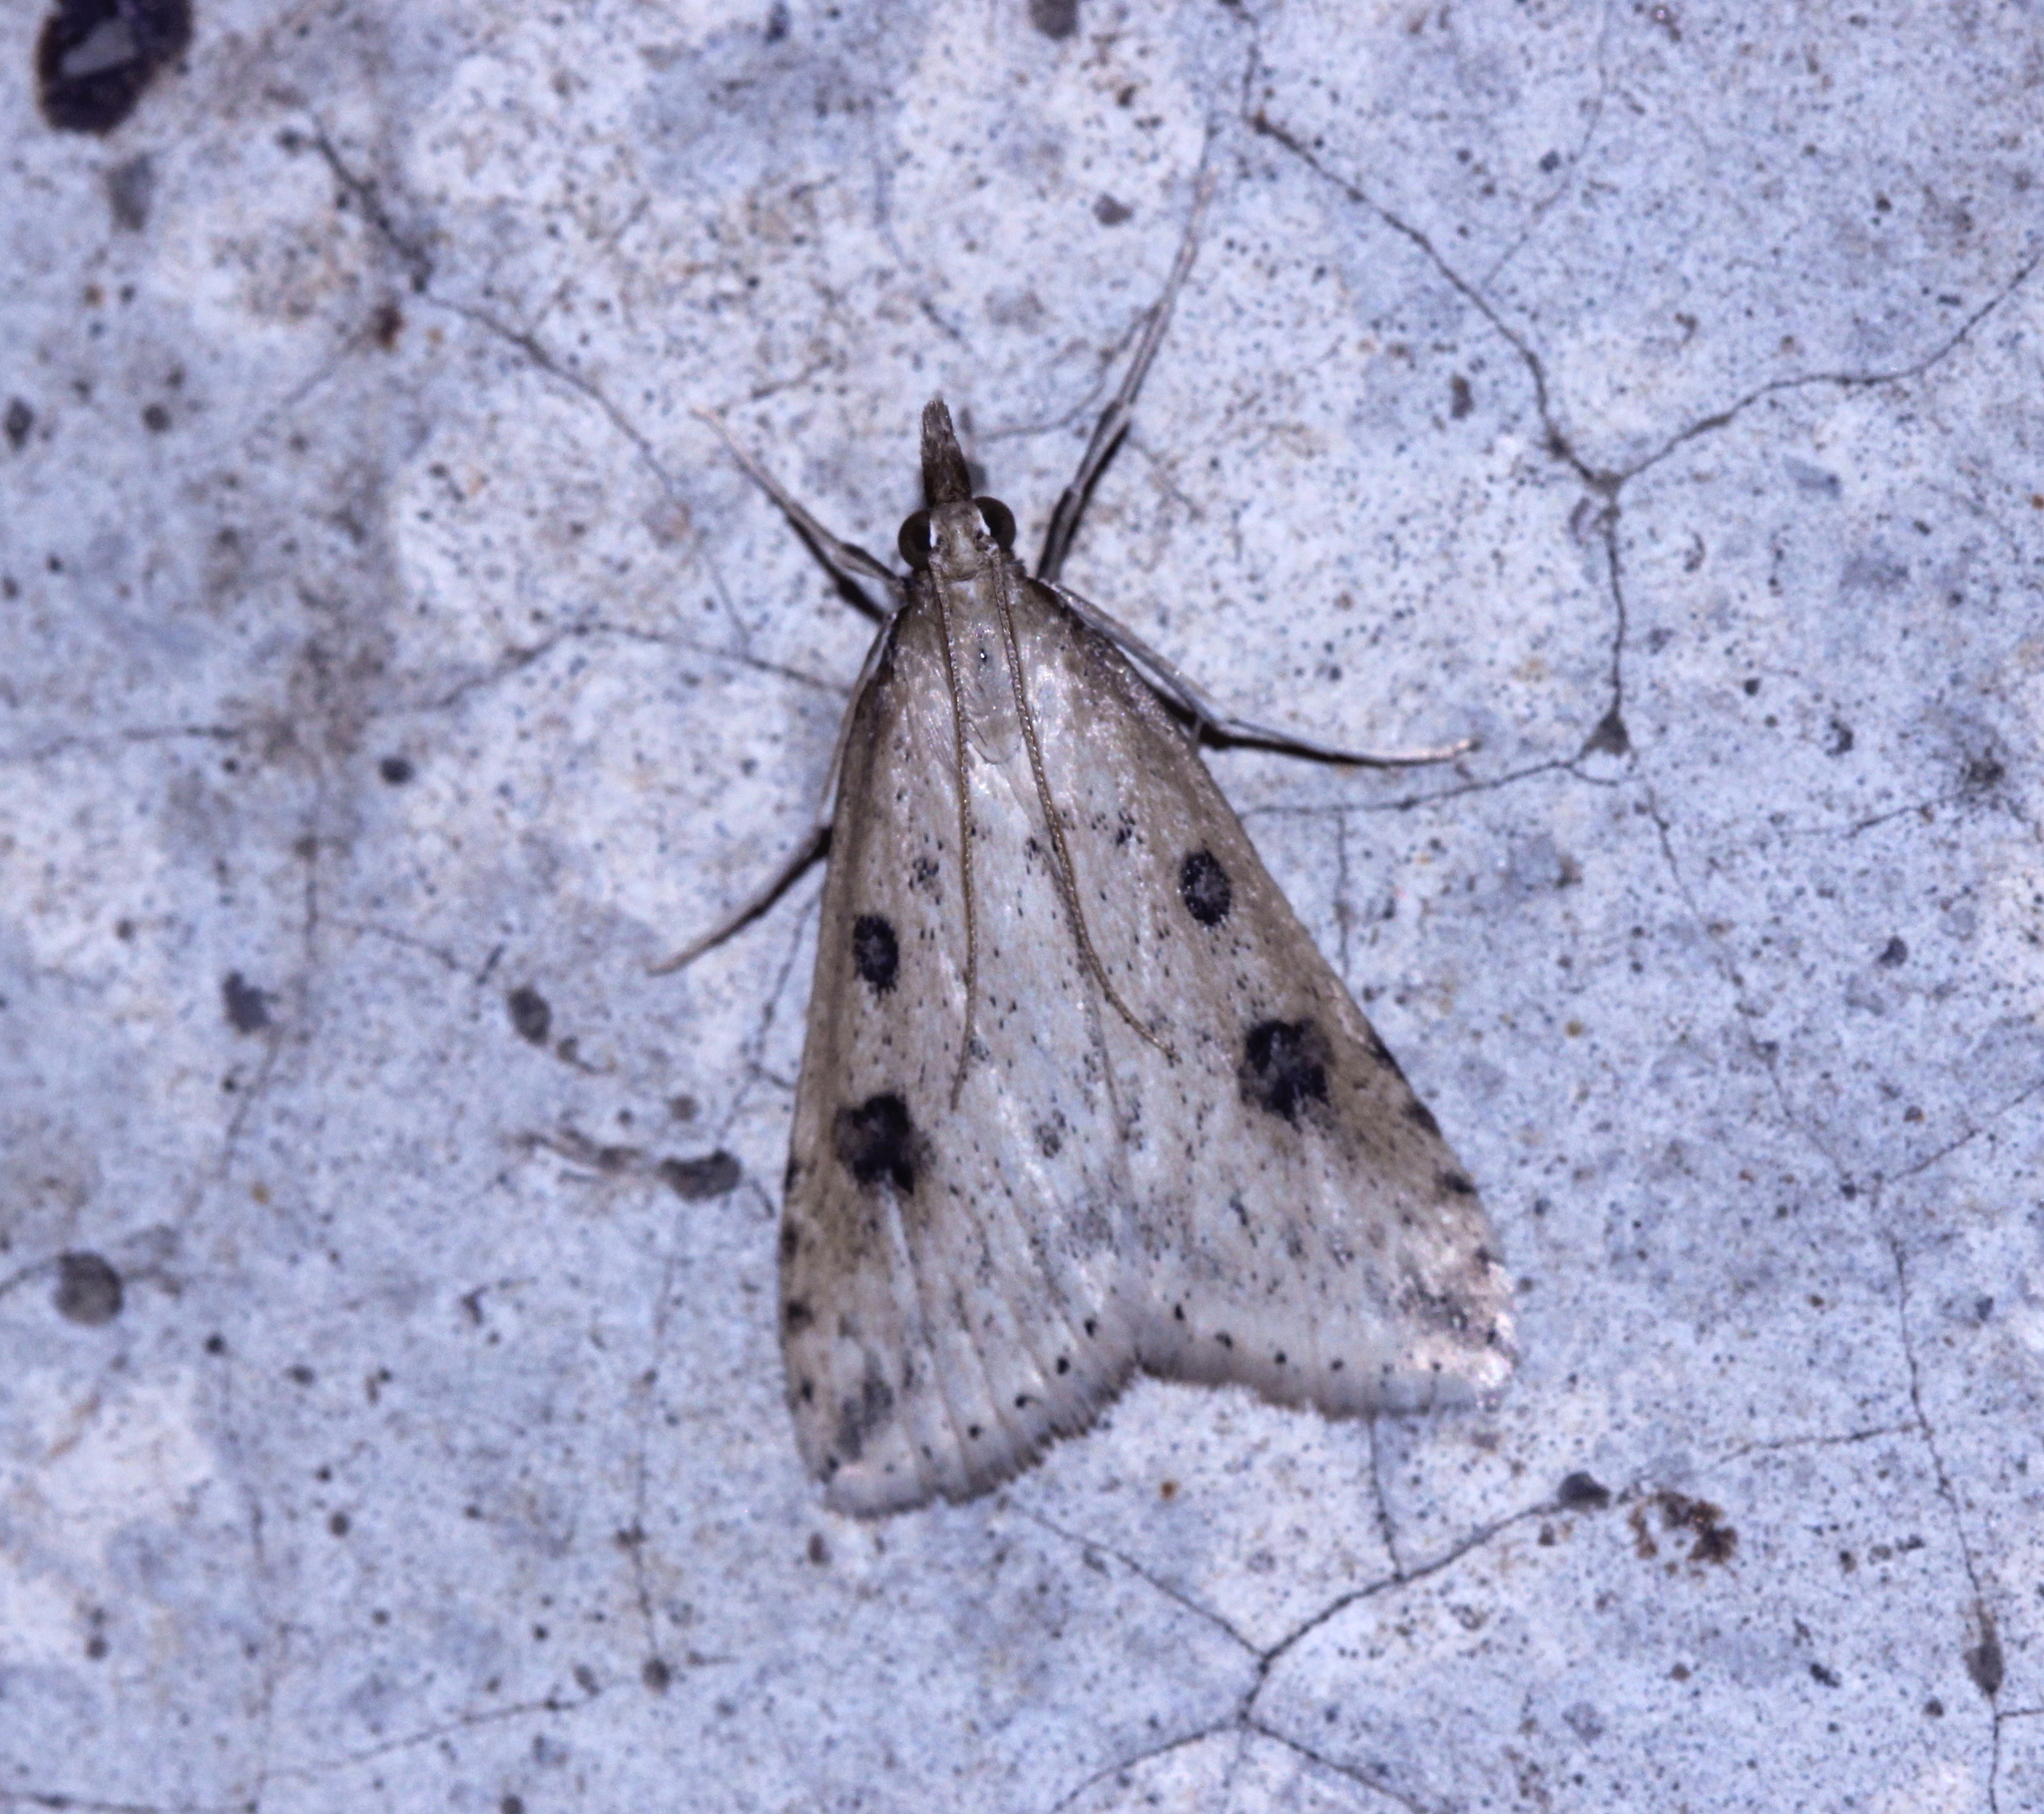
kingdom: Animalia
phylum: Arthropoda
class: Insecta
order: Lepidoptera
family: Crambidae
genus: Udea
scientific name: Udea numeralis
